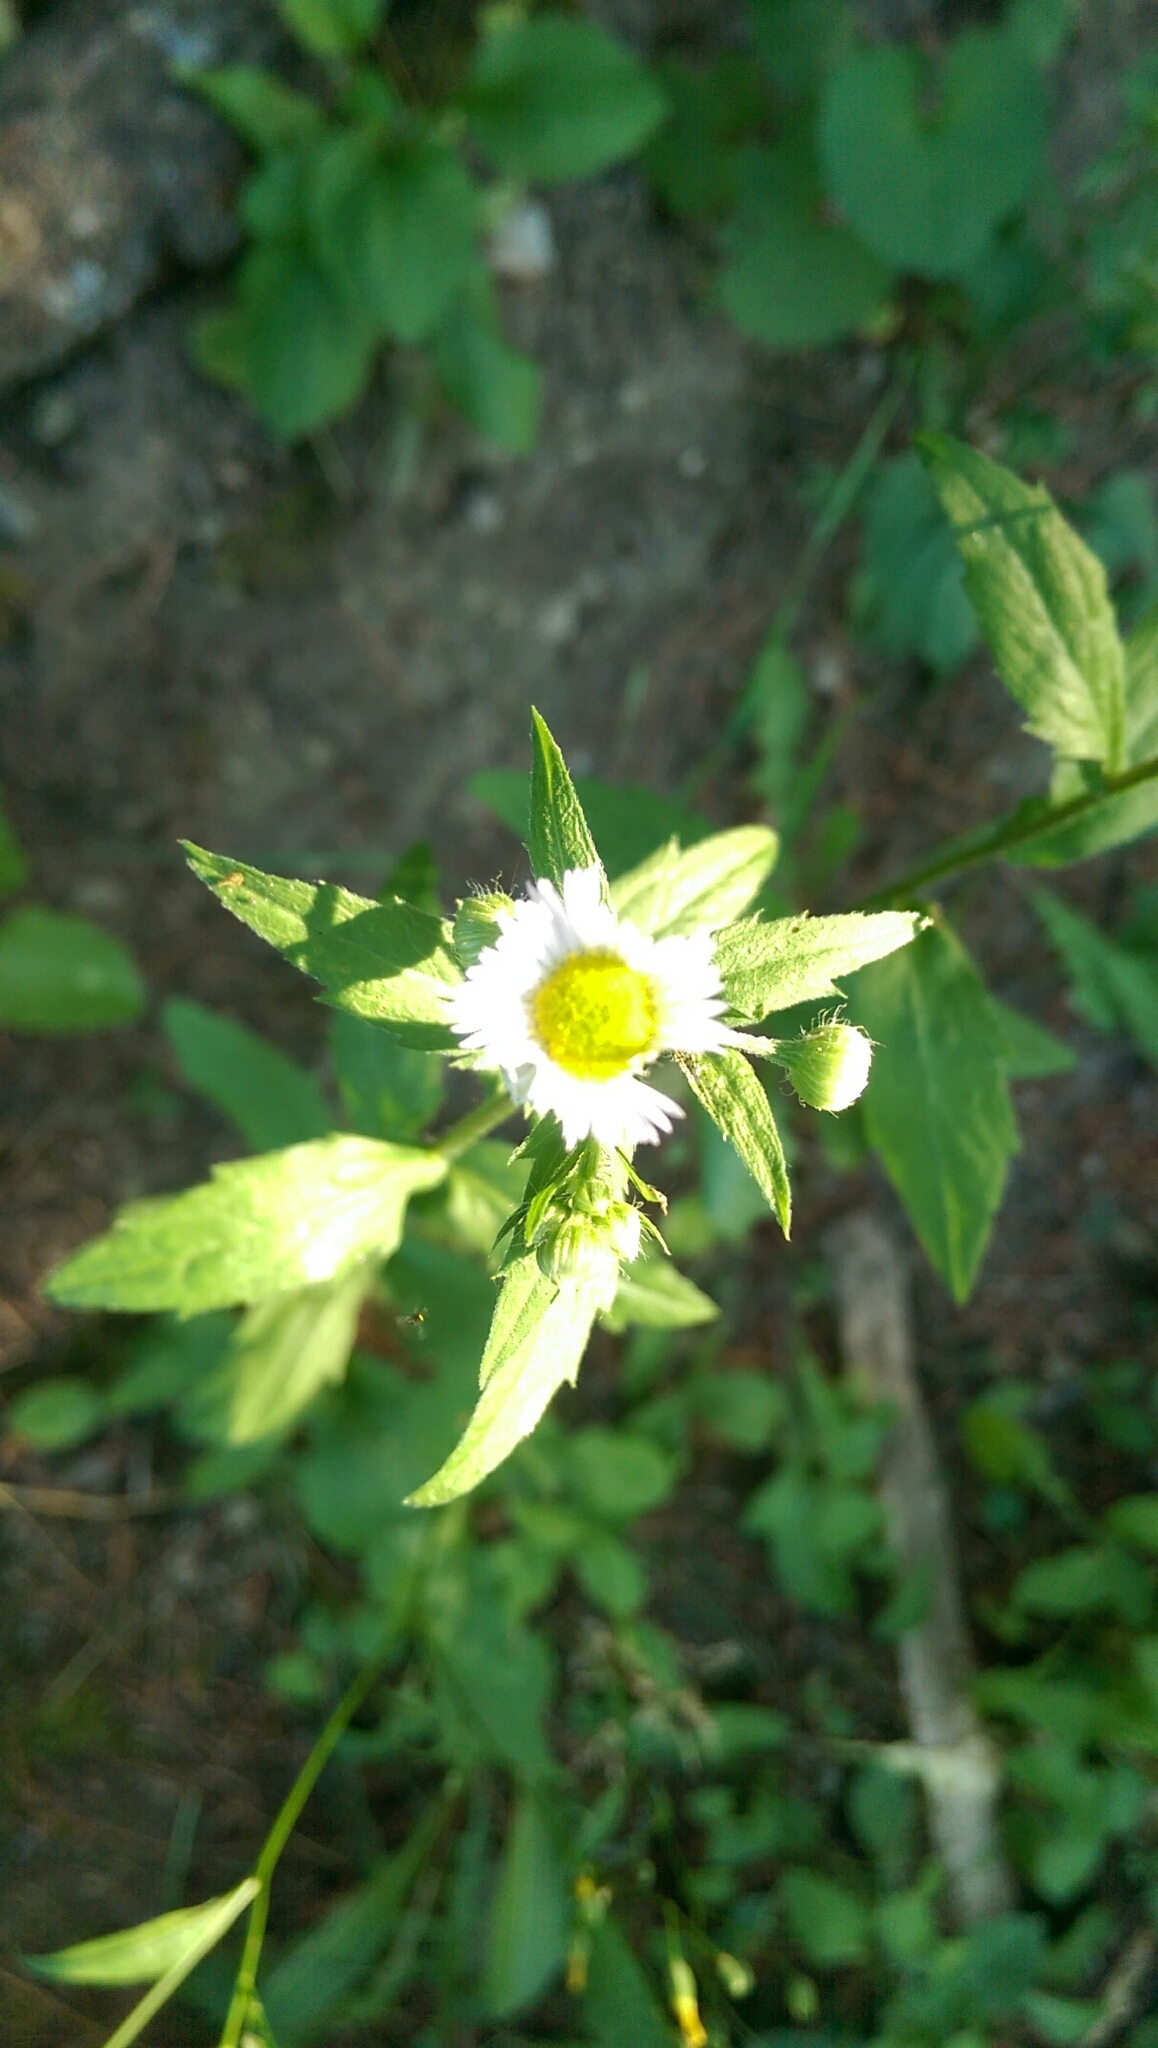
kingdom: Plantae
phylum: Tracheophyta
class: Magnoliopsida
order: Asterales
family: Asteraceae
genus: Erigeron
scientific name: Erigeron annuus
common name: Tall fleabane
